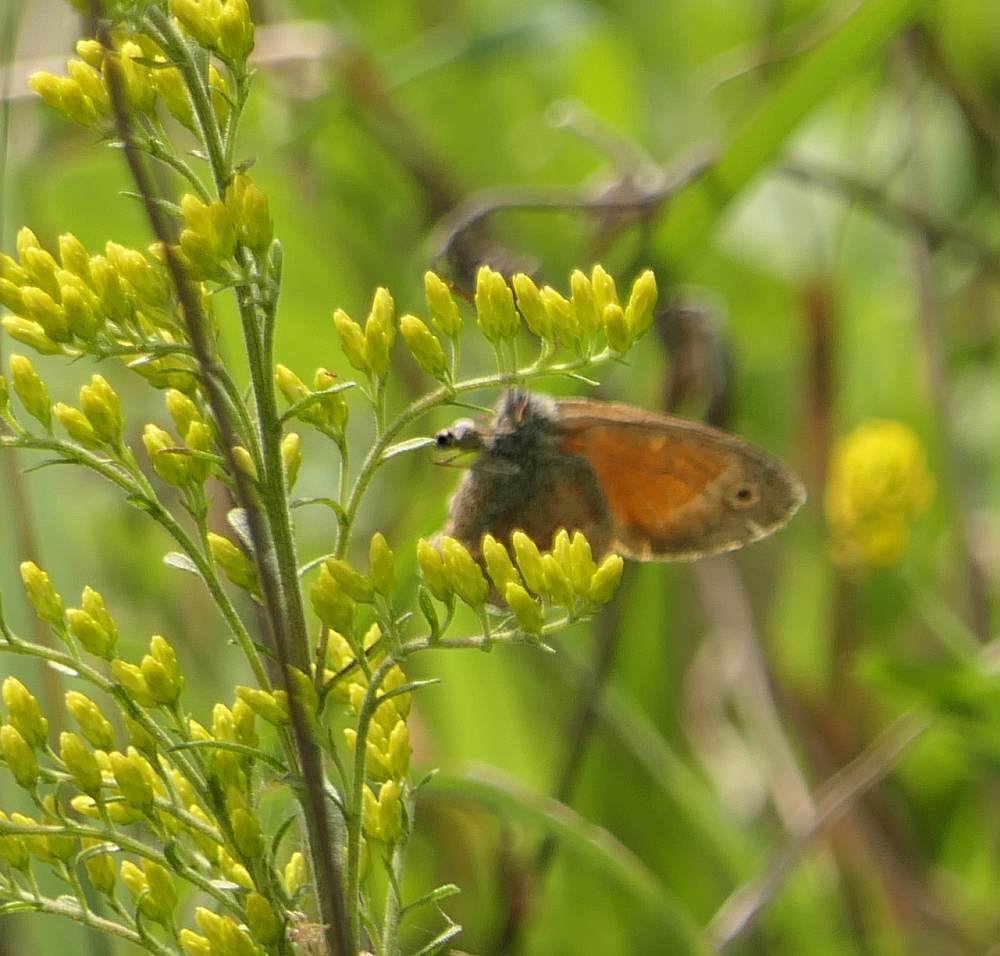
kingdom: Animalia
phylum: Arthropoda
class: Insecta
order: Lepidoptera
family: Nymphalidae
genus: Coenonympha
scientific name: Coenonympha california
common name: Common ringlet
